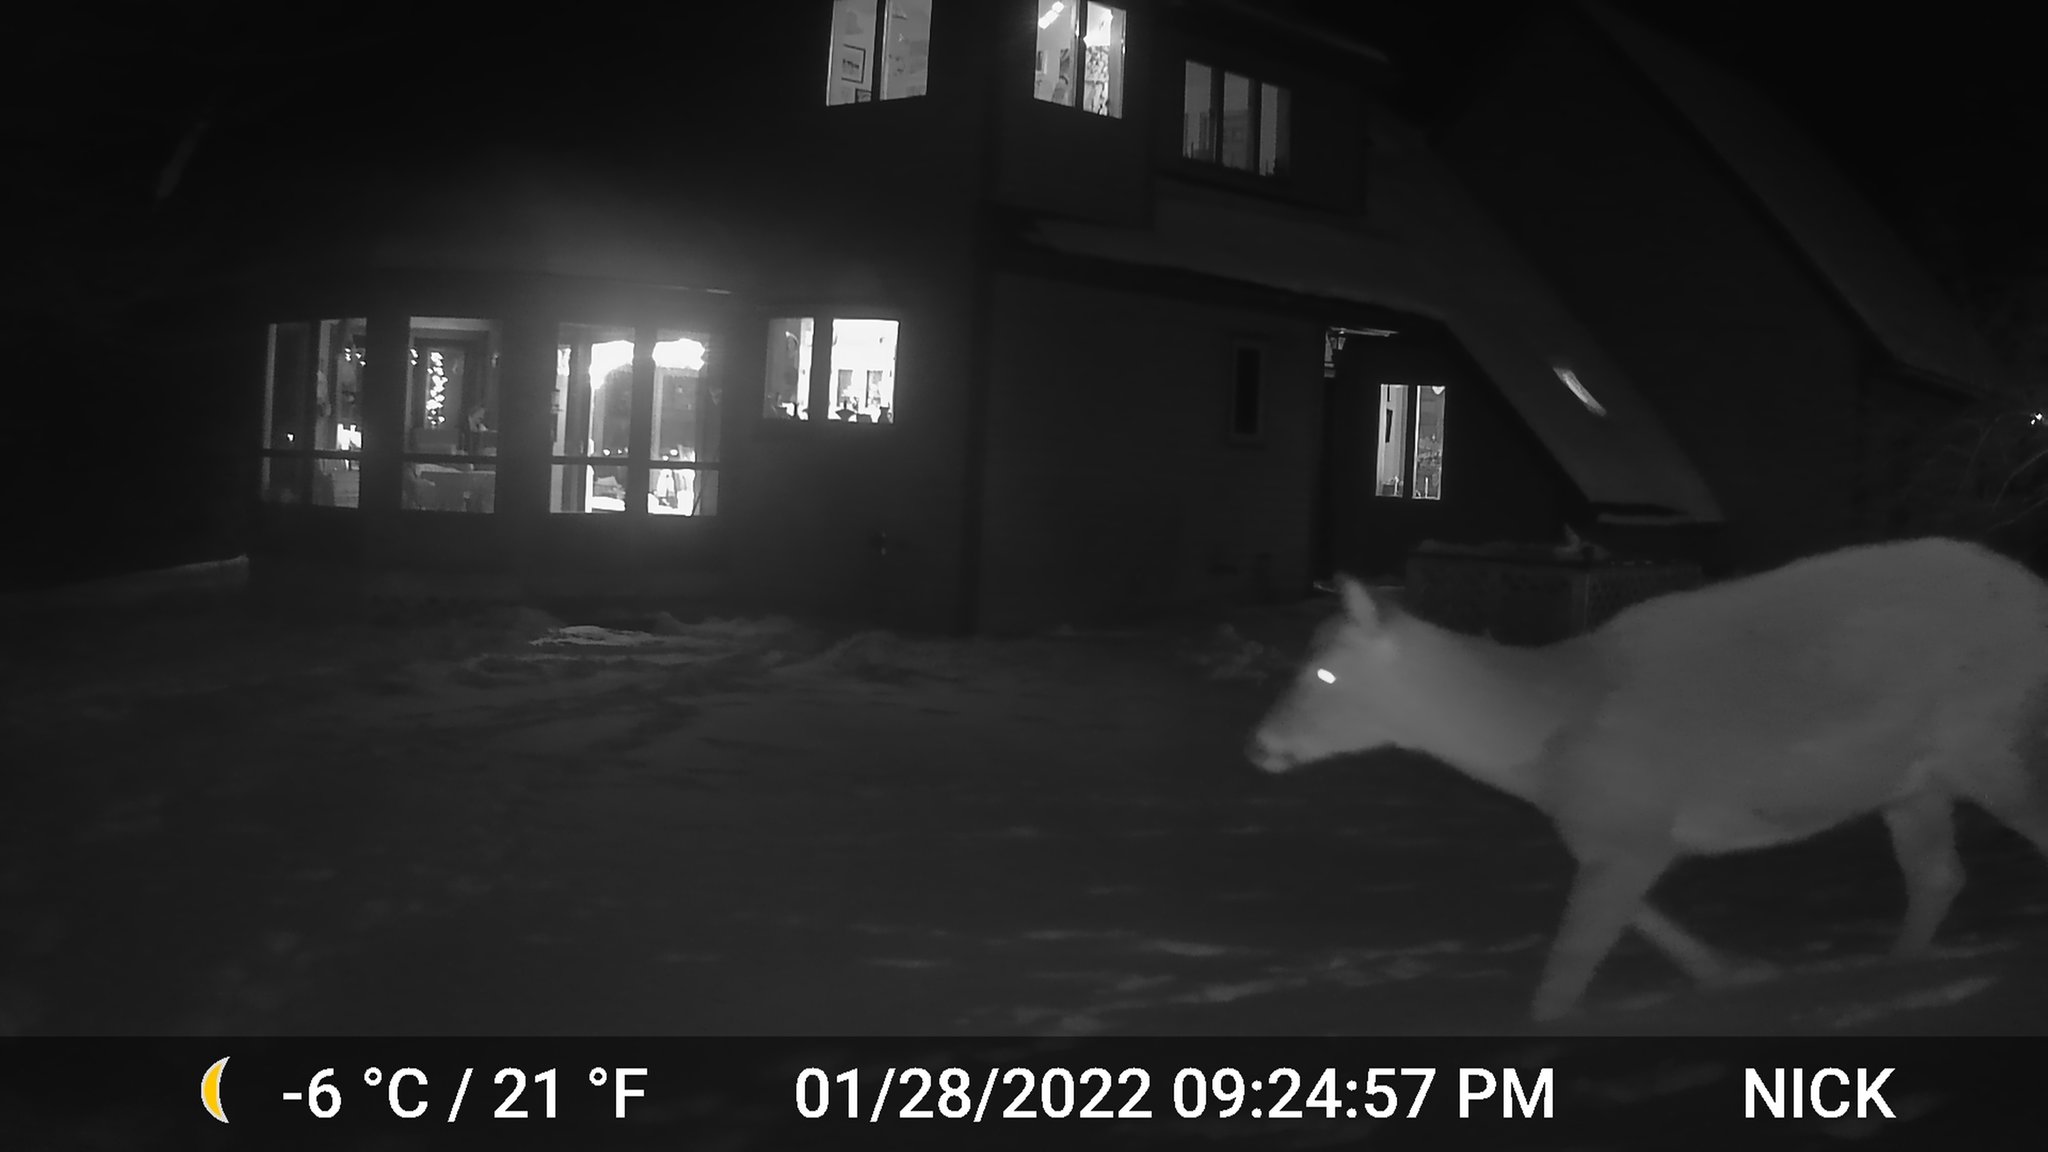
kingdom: Animalia
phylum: Chordata
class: Mammalia
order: Artiodactyla
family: Cervidae
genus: Odocoileus
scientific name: Odocoileus virginianus
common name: White-tailed deer
